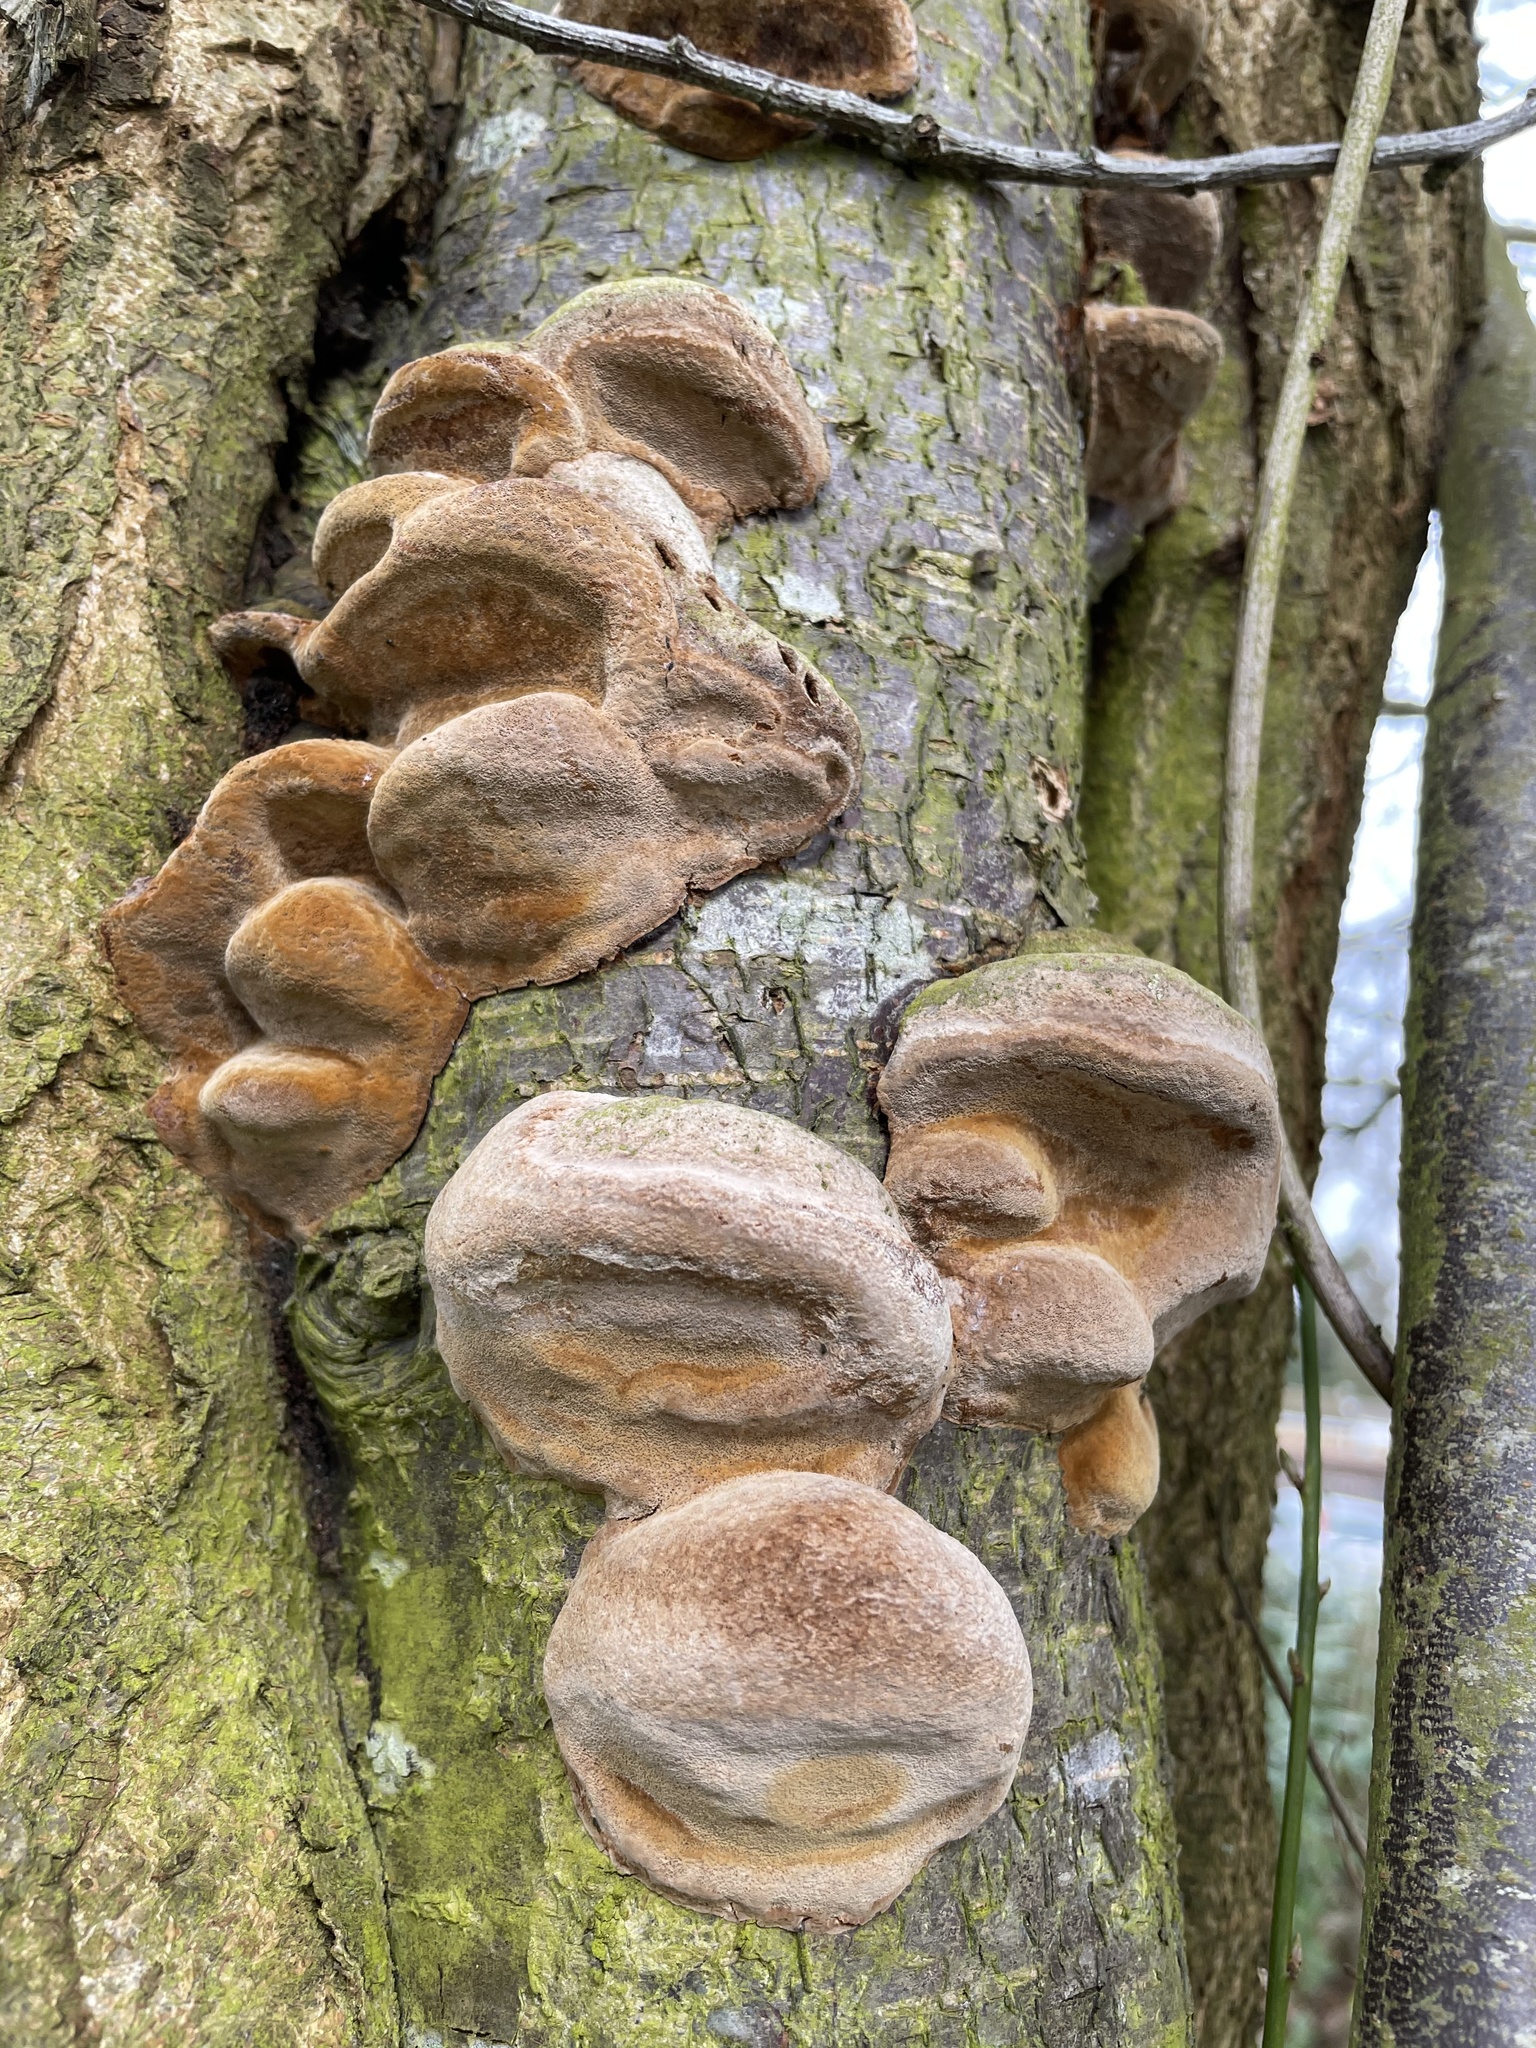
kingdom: Fungi
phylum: Basidiomycota
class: Agaricomycetes
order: Hymenochaetales
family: Hymenochaetaceae
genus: Phellinus
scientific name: Phellinus pomaceus
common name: Cushion bracket
